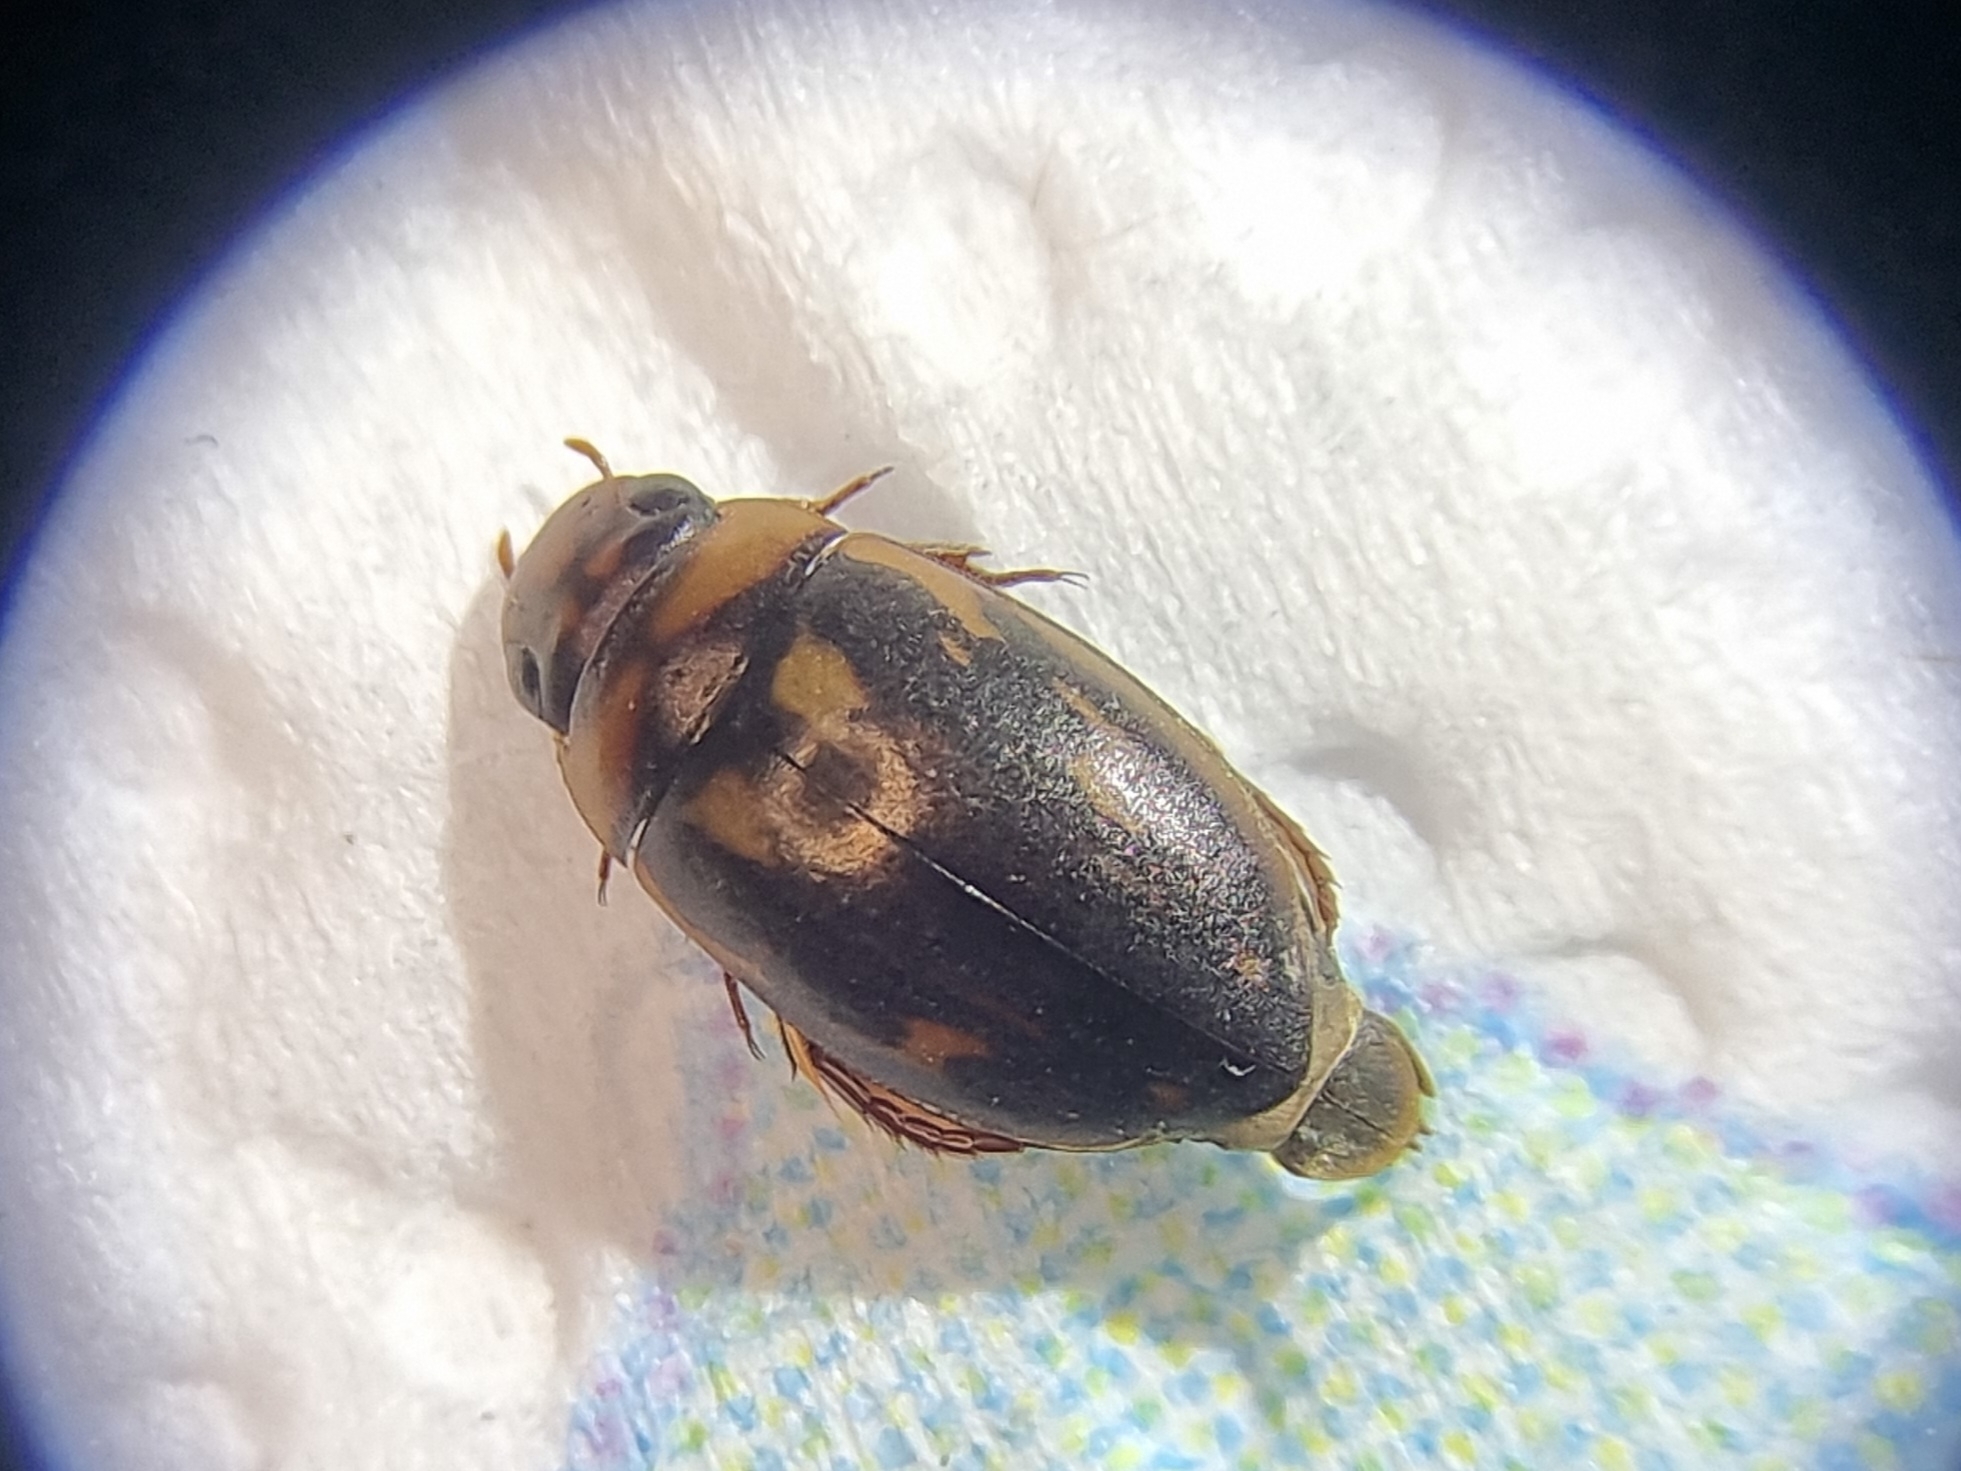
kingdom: Animalia
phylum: Arthropoda
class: Insecta
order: Coleoptera
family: Dytiscidae
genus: Platambus
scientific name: Platambus maculatus
